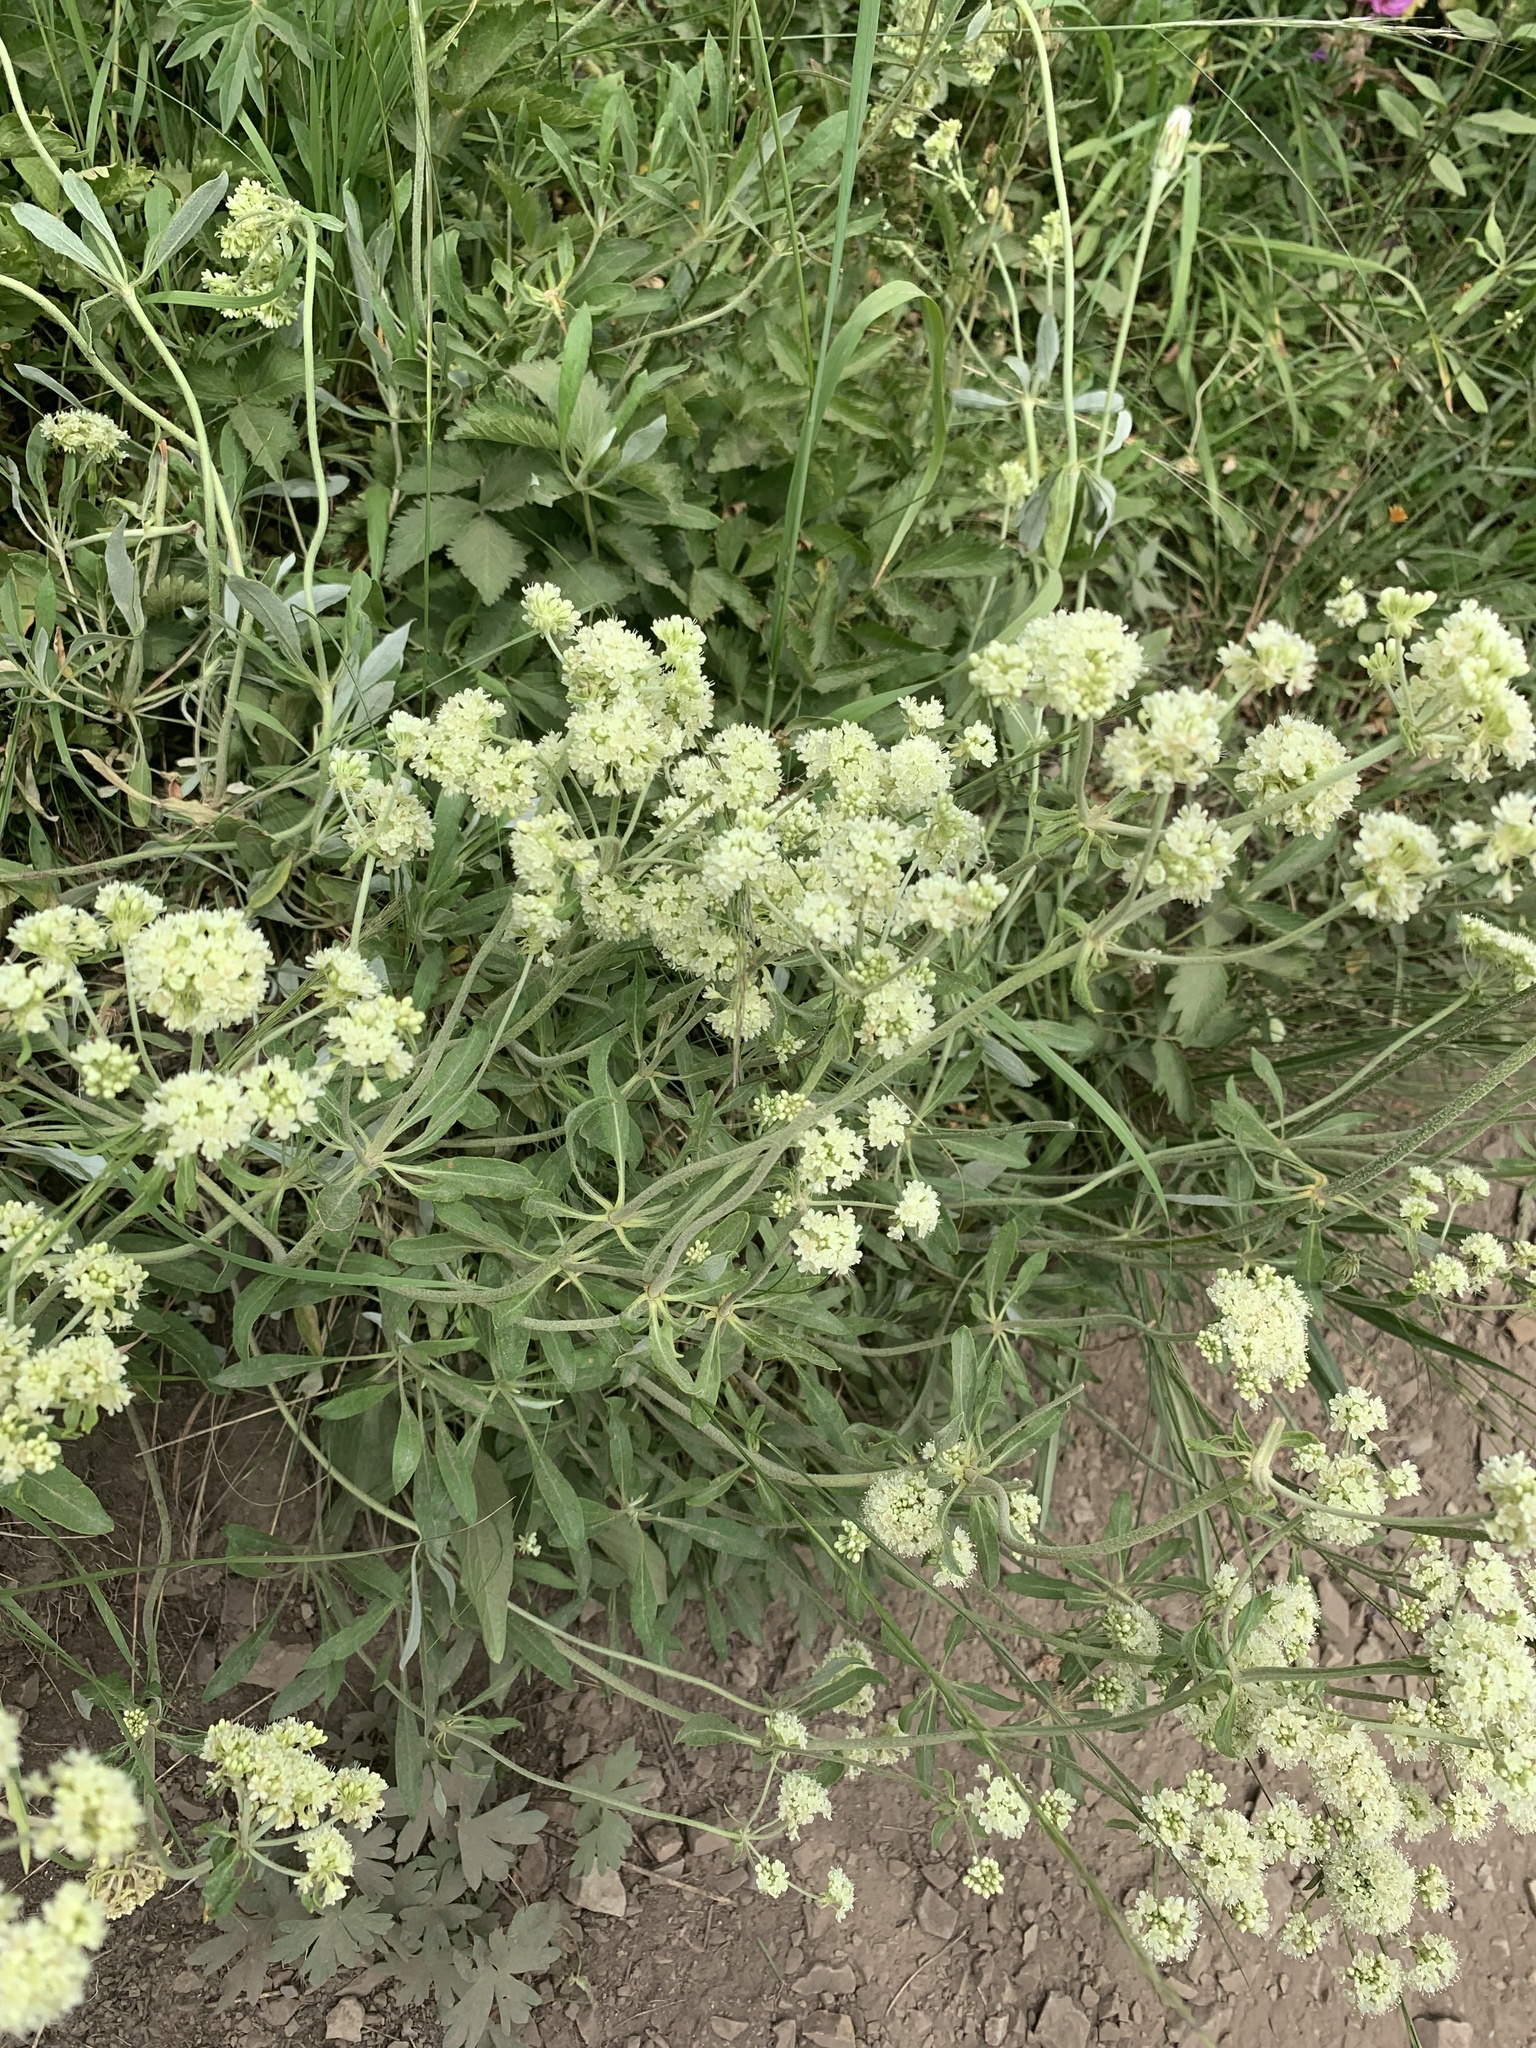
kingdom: Plantae
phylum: Tracheophyta
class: Magnoliopsida
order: Caryophyllales
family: Polygonaceae
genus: Eriogonum
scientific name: Eriogonum heracleoides
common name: Wyeth's buckwheat
